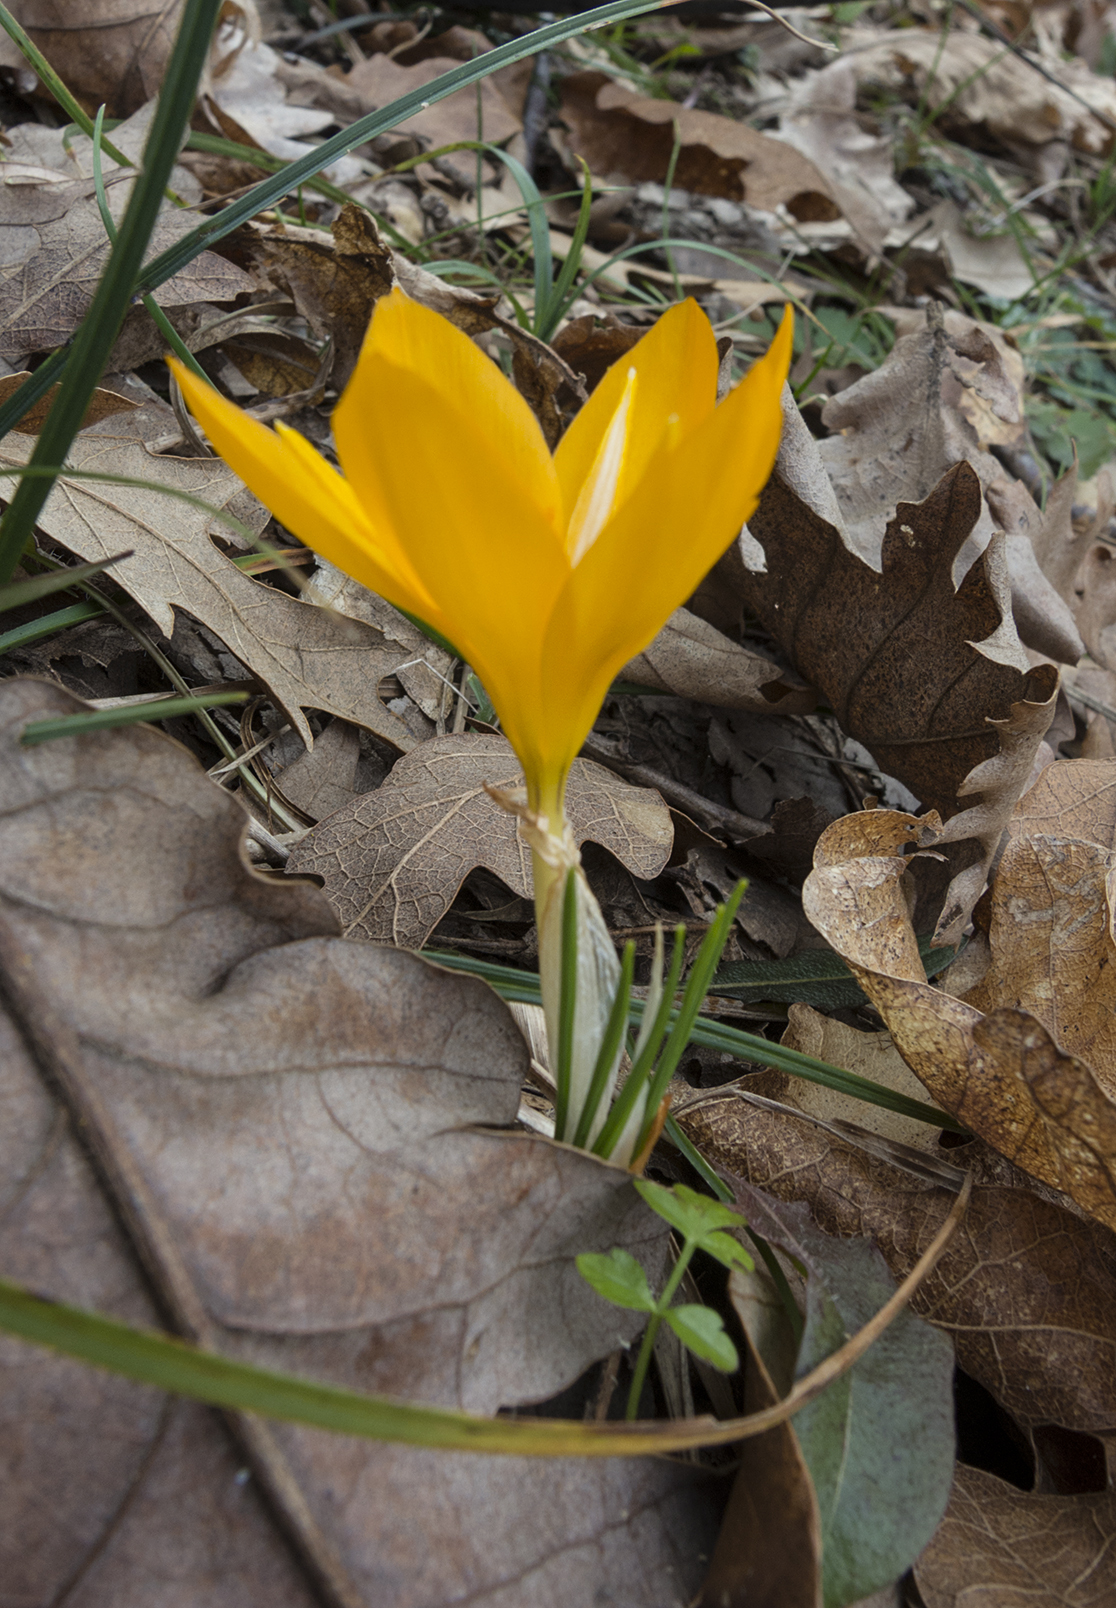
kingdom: Plantae
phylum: Tracheophyta
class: Liliopsida
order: Asparagales
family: Iridaceae
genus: Crocus
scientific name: Crocus flavus
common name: Yellow crocus
